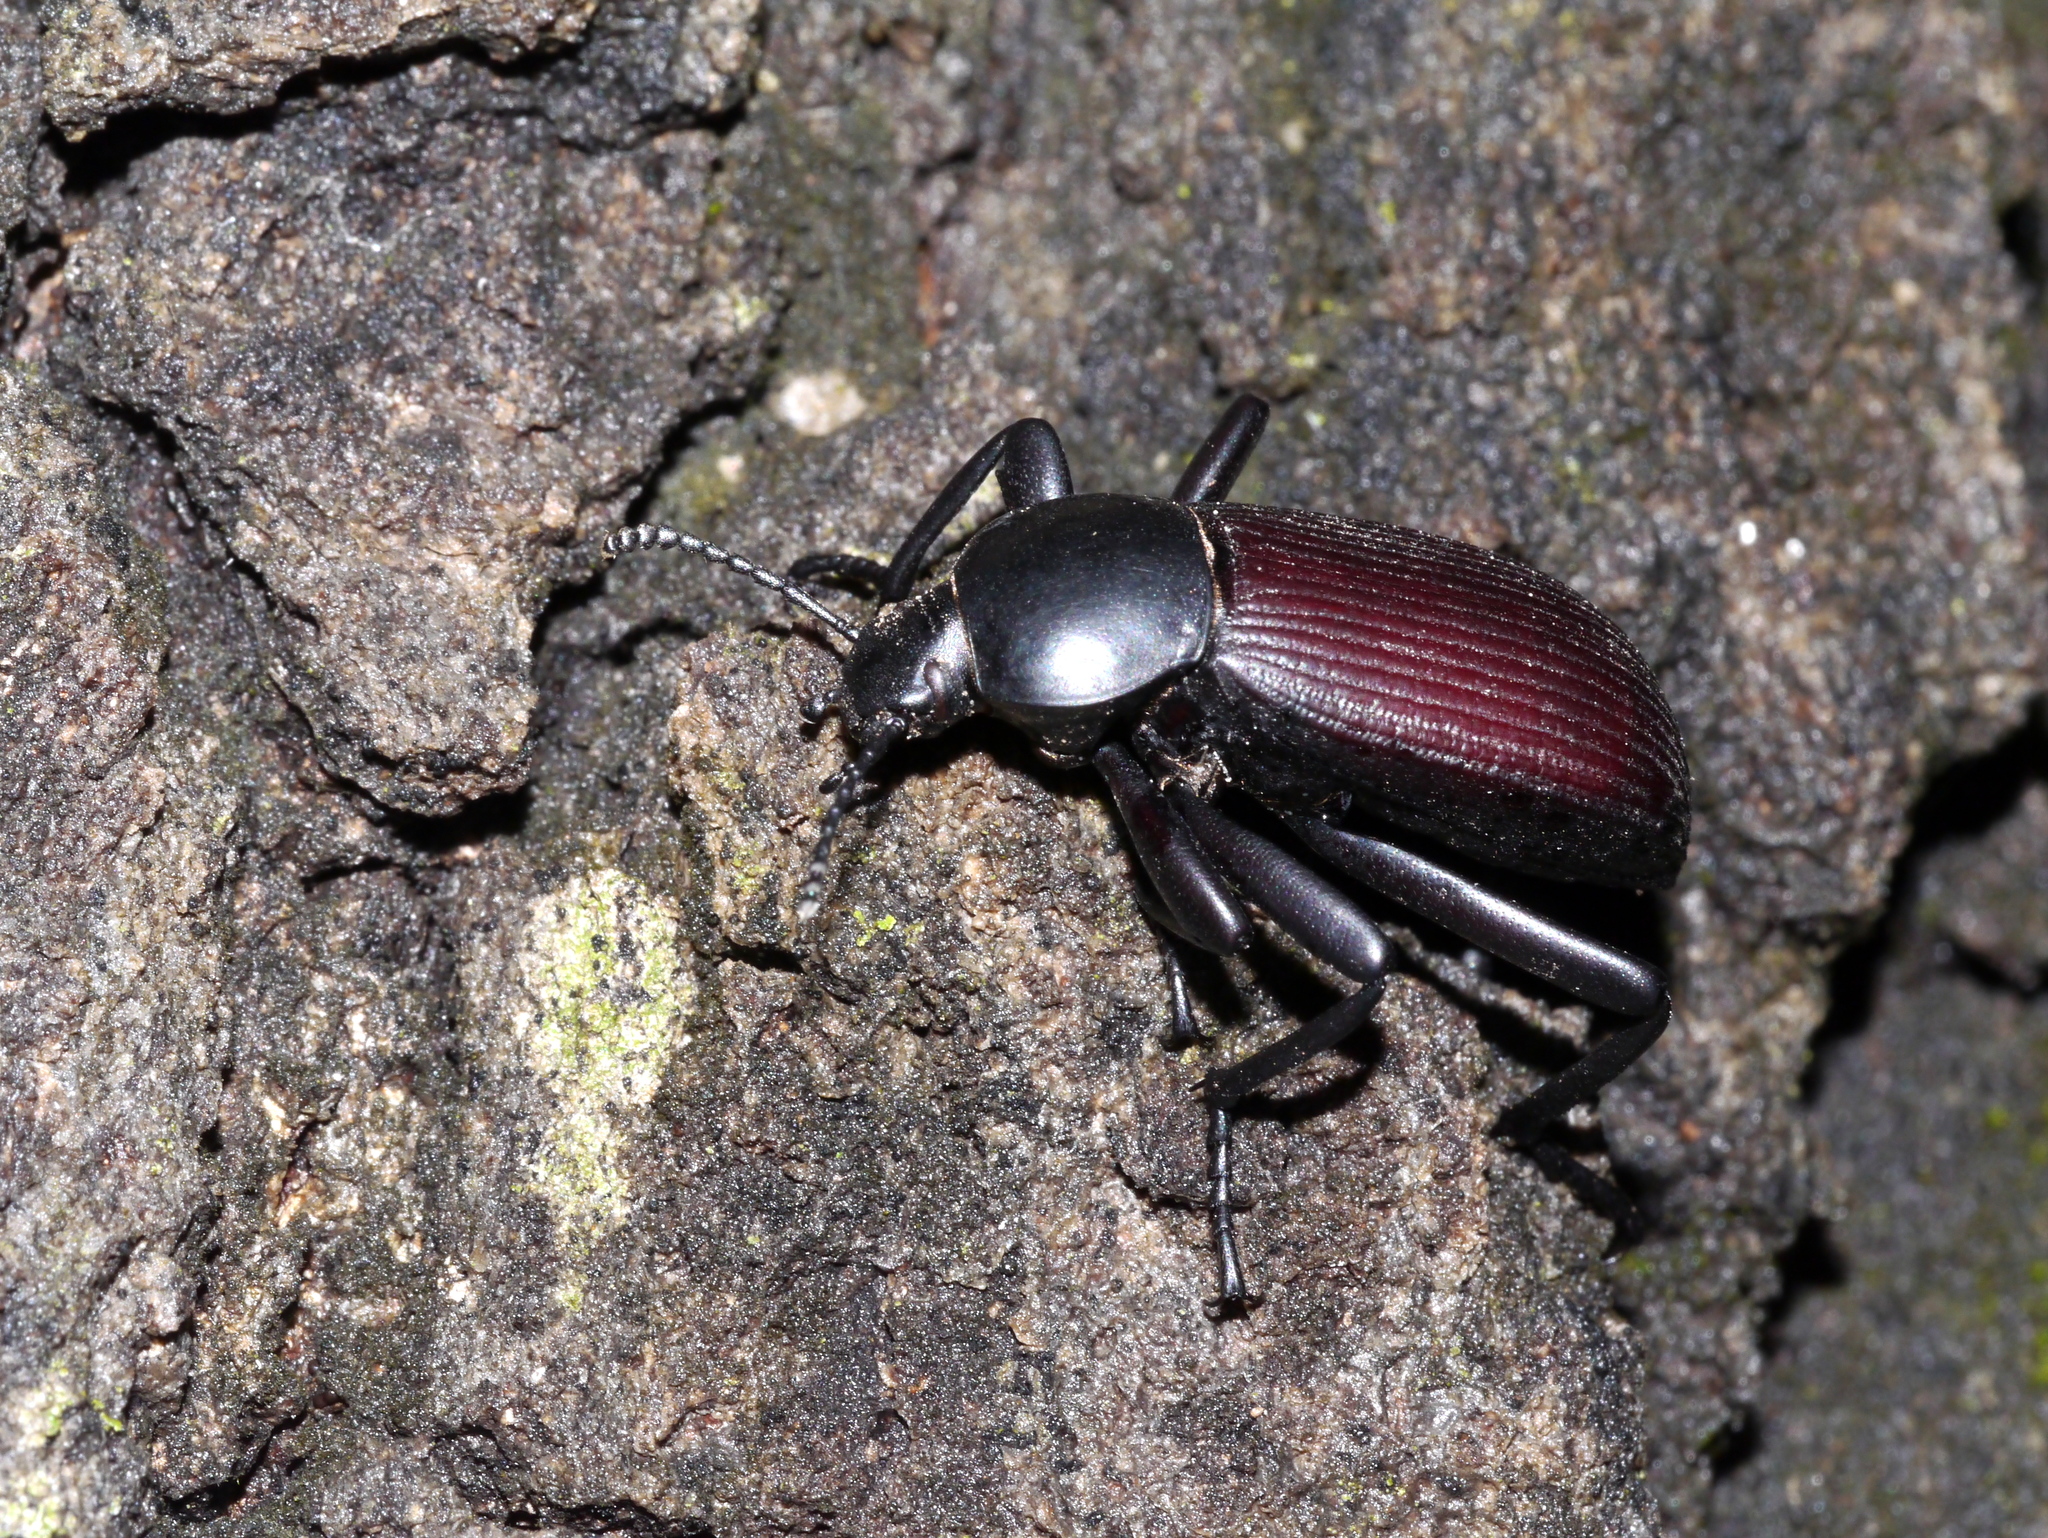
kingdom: Animalia
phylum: Arthropoda
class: Insecta
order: Coleoptera
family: Tenebrionidae
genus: Eleodes
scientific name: Eleodes obscura
